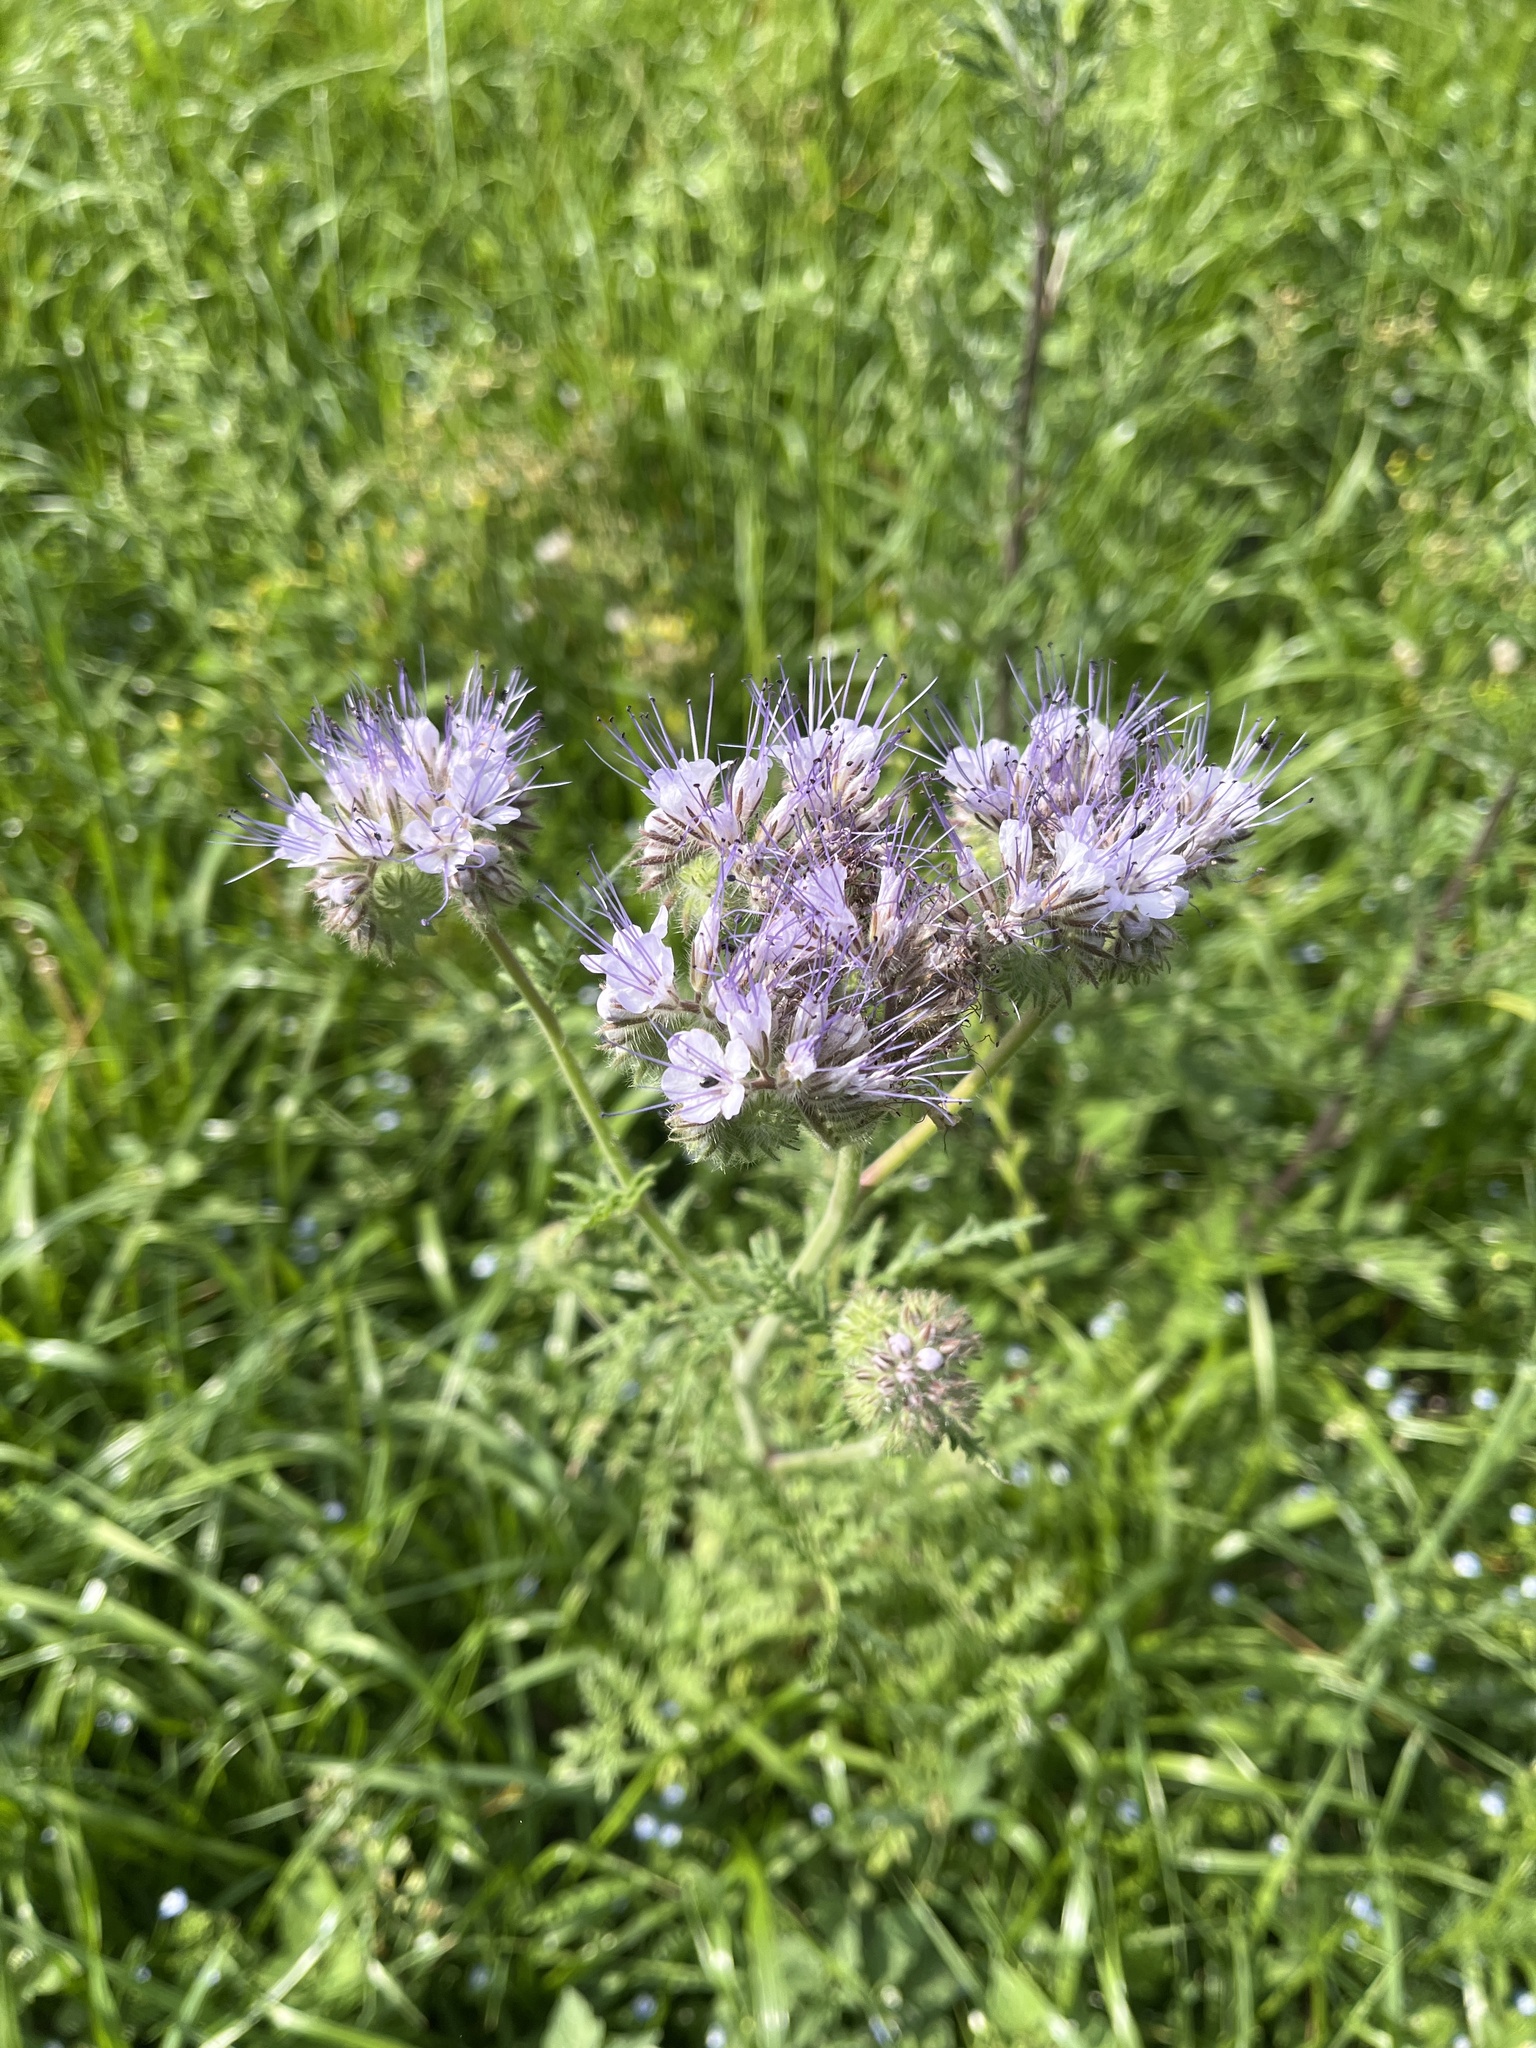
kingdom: Plantae
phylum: Tracheophyta
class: Magnoliopsida
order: Boraginales
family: Hydrophyllaceae
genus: Phacelia
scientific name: Phacelia tanacetifolia
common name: Phacelia
